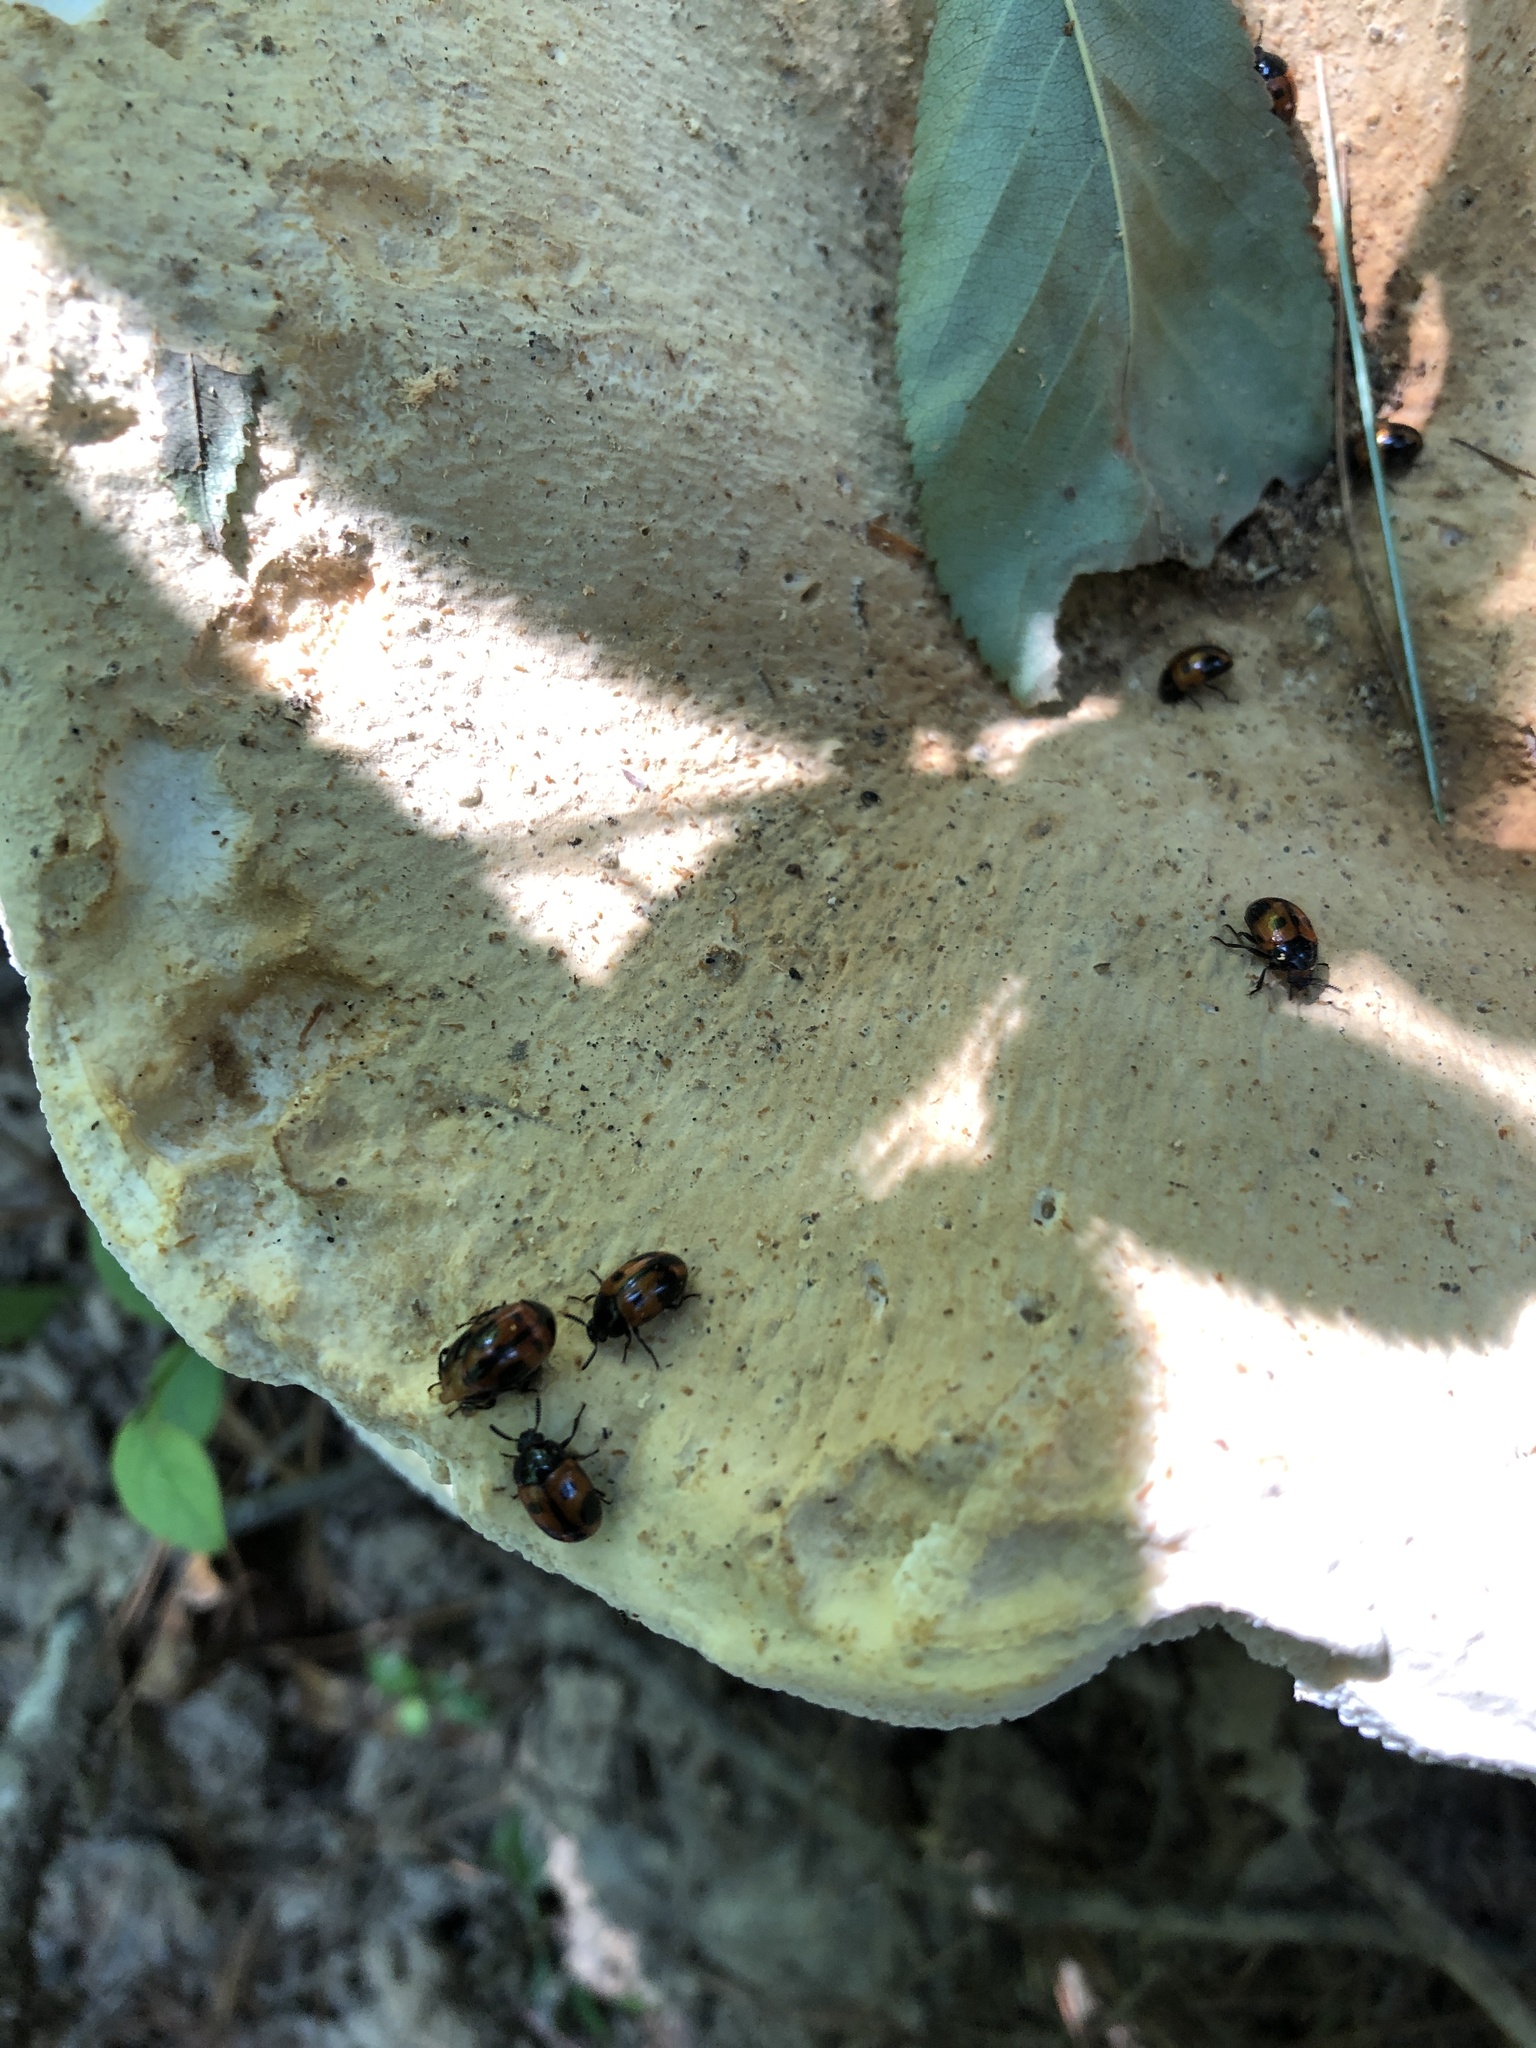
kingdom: Animalia
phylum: Arthropoda
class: Insecta
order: Coleoptera
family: Tenebrionidae
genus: Diaperis
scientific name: Diaperis maculata
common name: Darkling beetle
